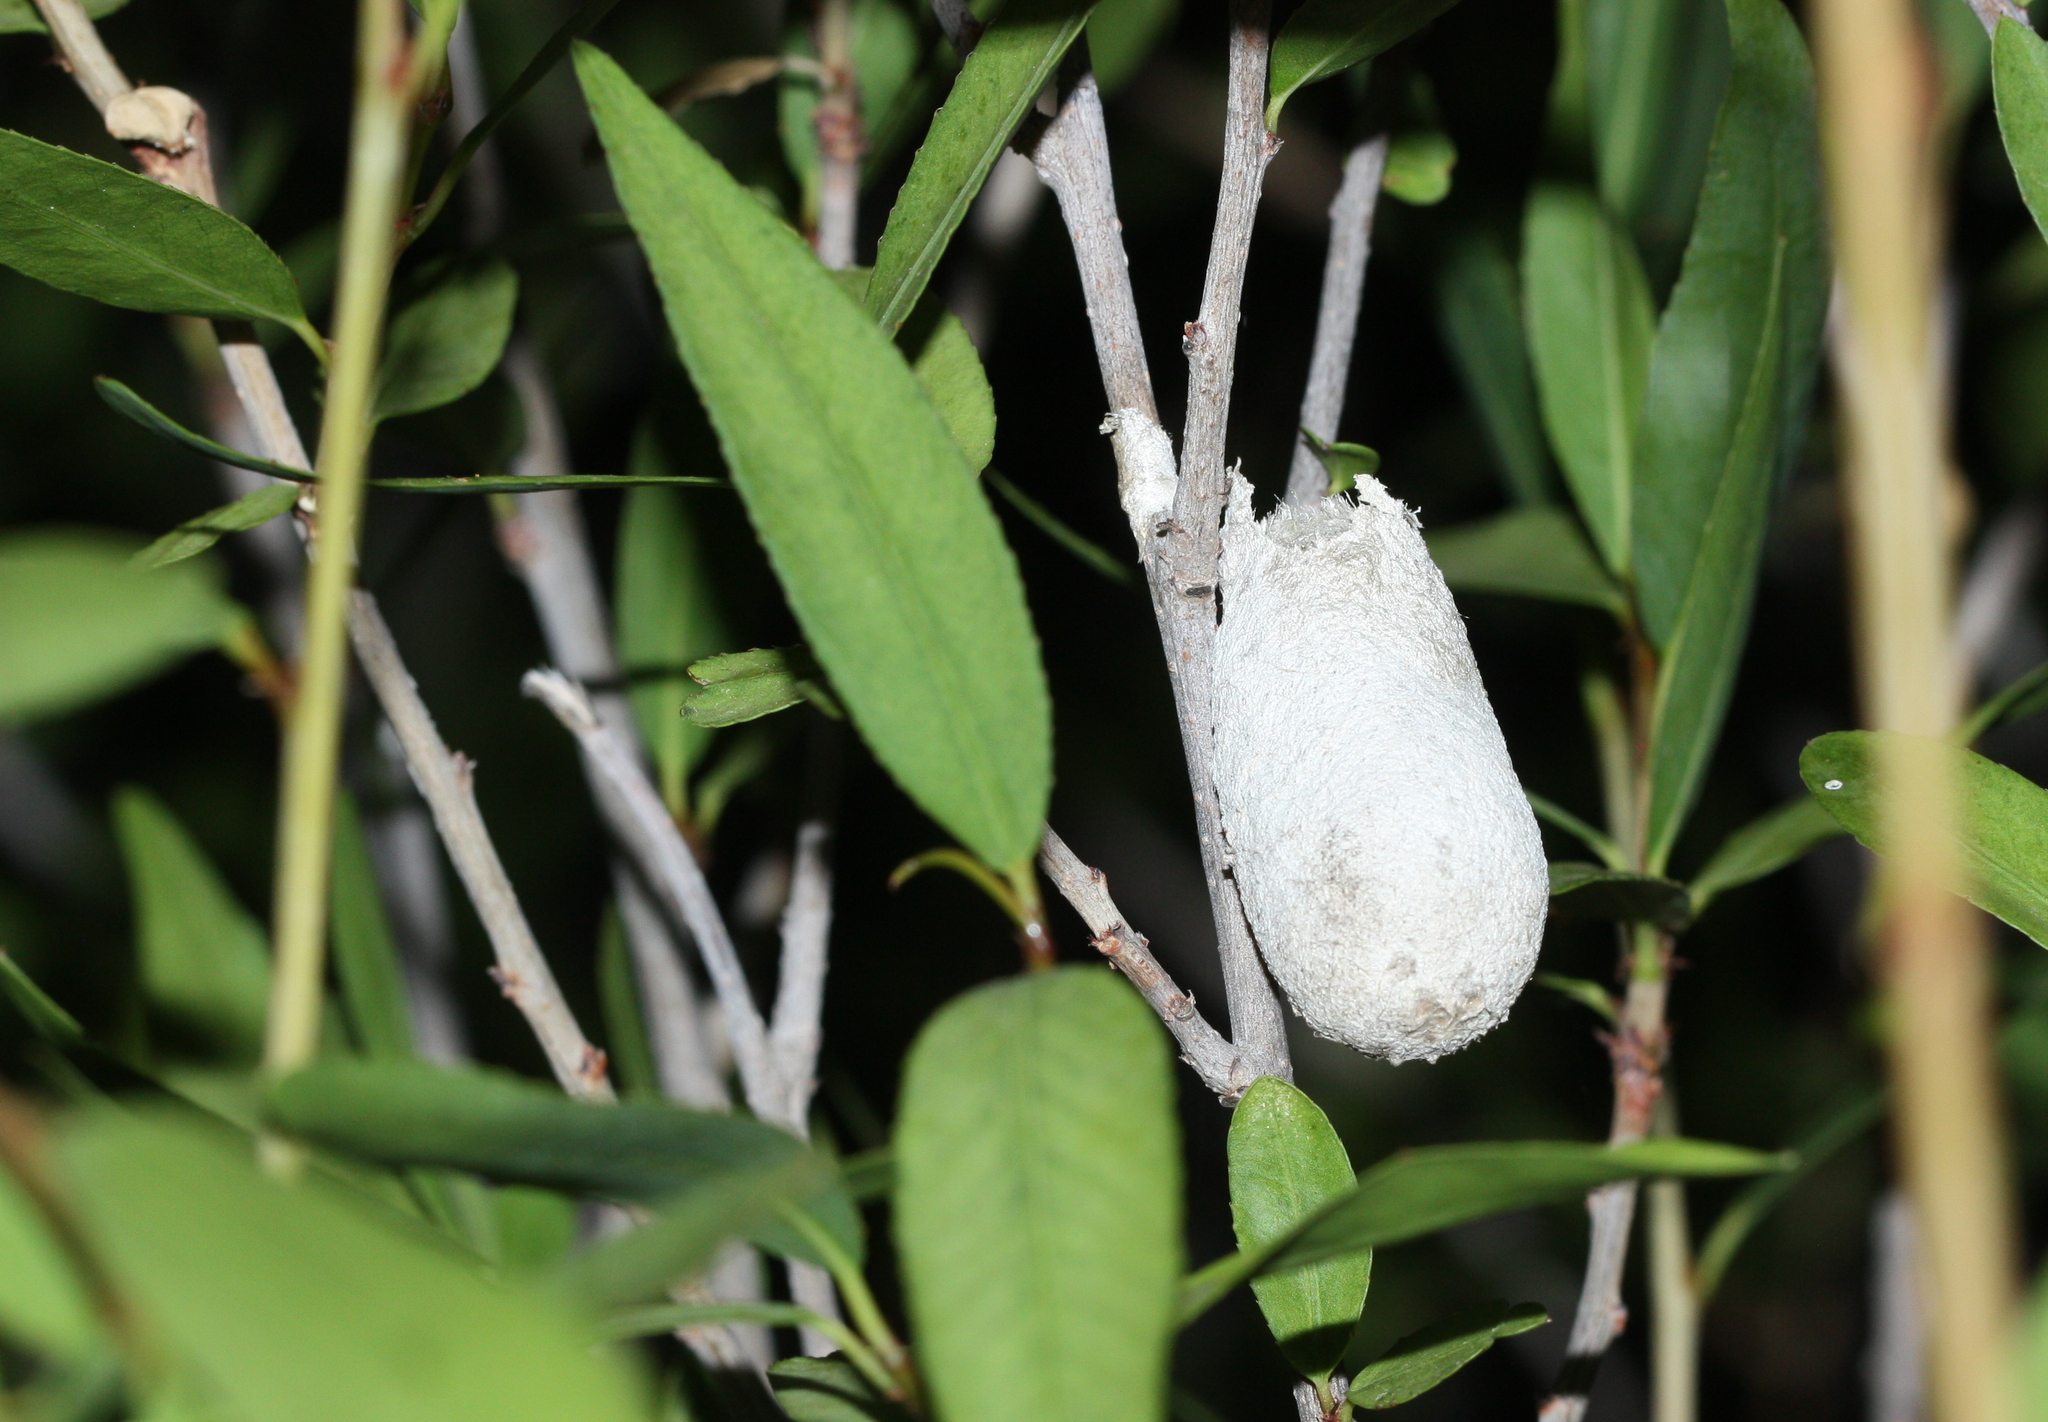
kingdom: Animalia
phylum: Arthropoda
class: Insecta
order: Lepidoptera
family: Saturniidae
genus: Eupackardia
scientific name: Eupackardia calleta
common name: Calleta silkmoth
